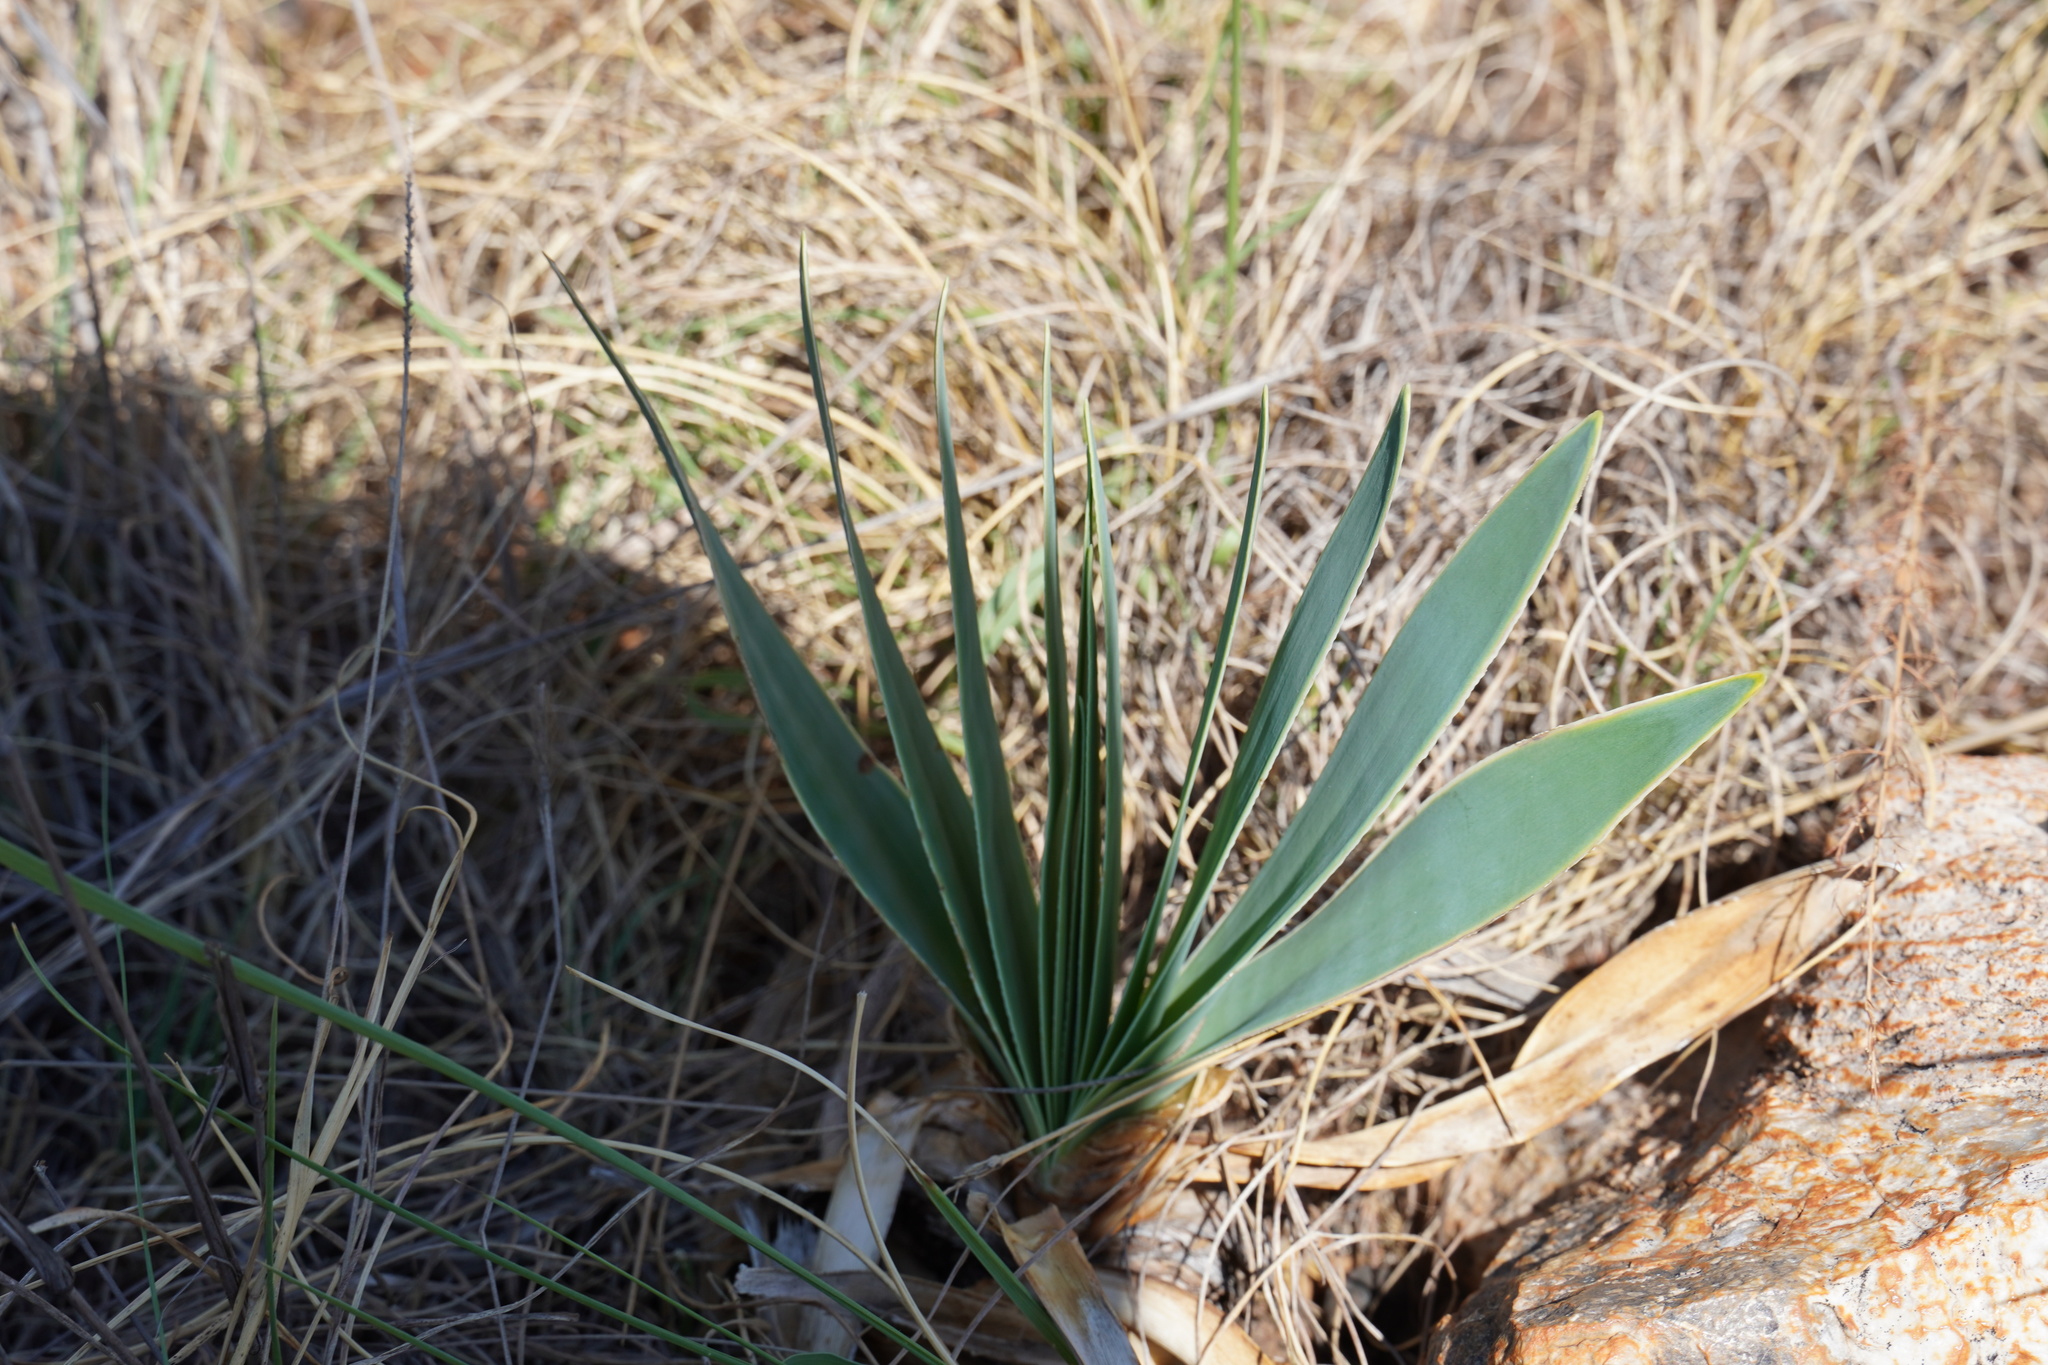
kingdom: Plantae
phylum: Tracheophyta
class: Liliopsida
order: Asparagales
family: Amaryllidaceae
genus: Boophone
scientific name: Boophone disticha
